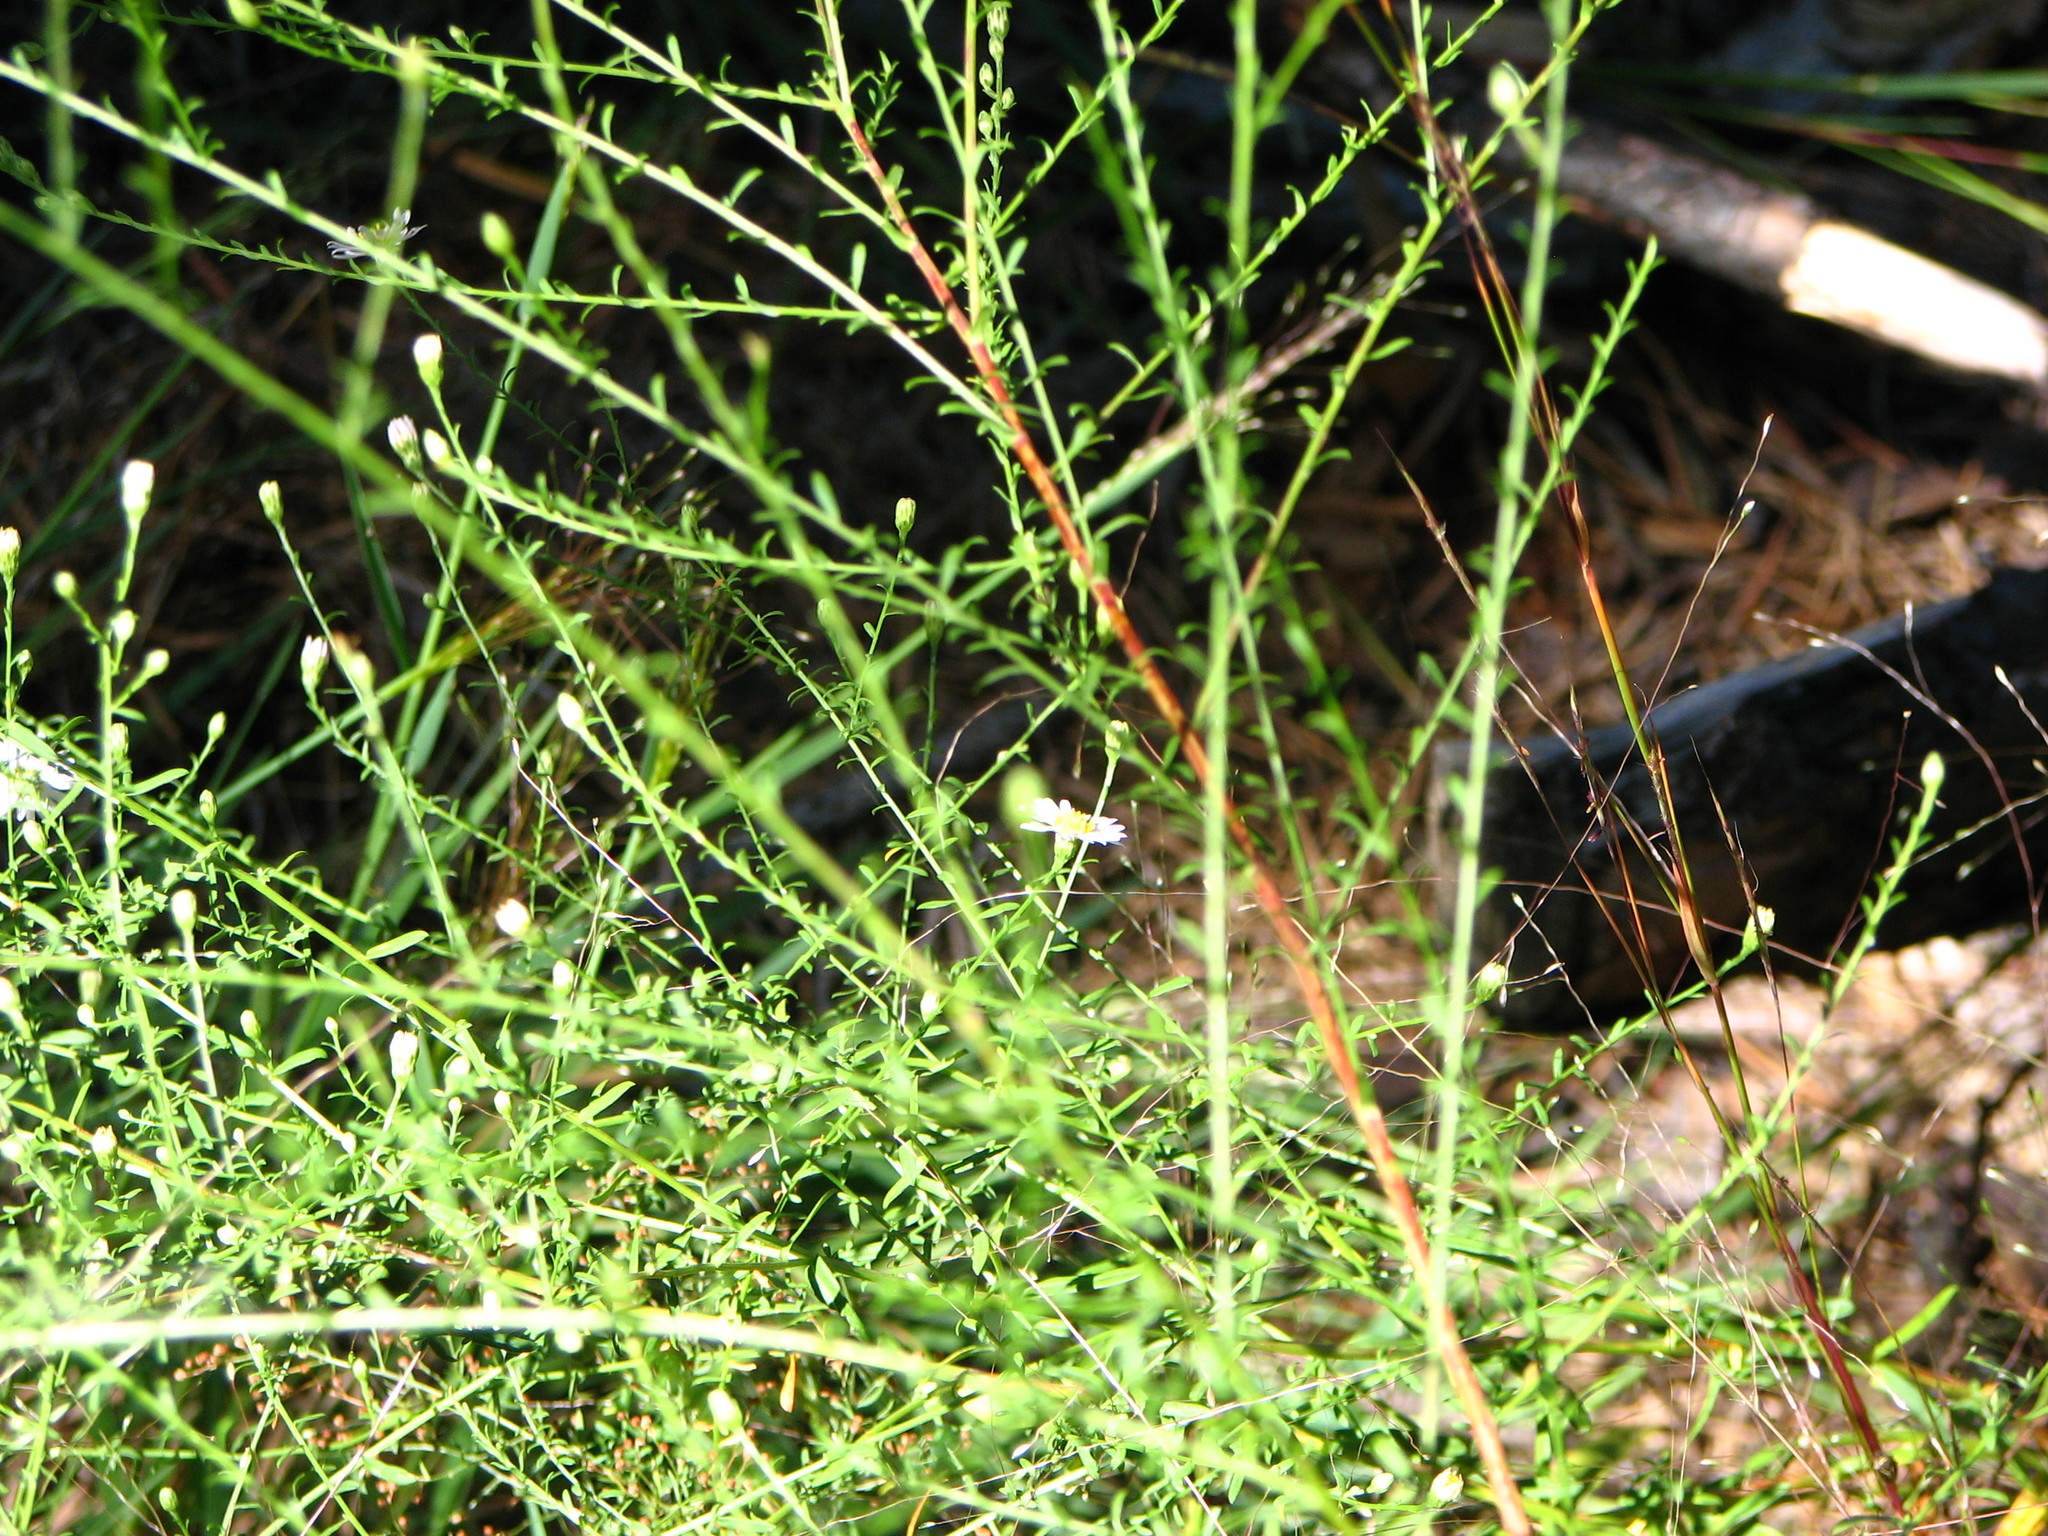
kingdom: Plantae
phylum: Tracheophyta
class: Magnoliopsida
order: Asterales
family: Asteraceae
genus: Symphyotrichum
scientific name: Symphyotrichum dumosum
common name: Bushy aster
